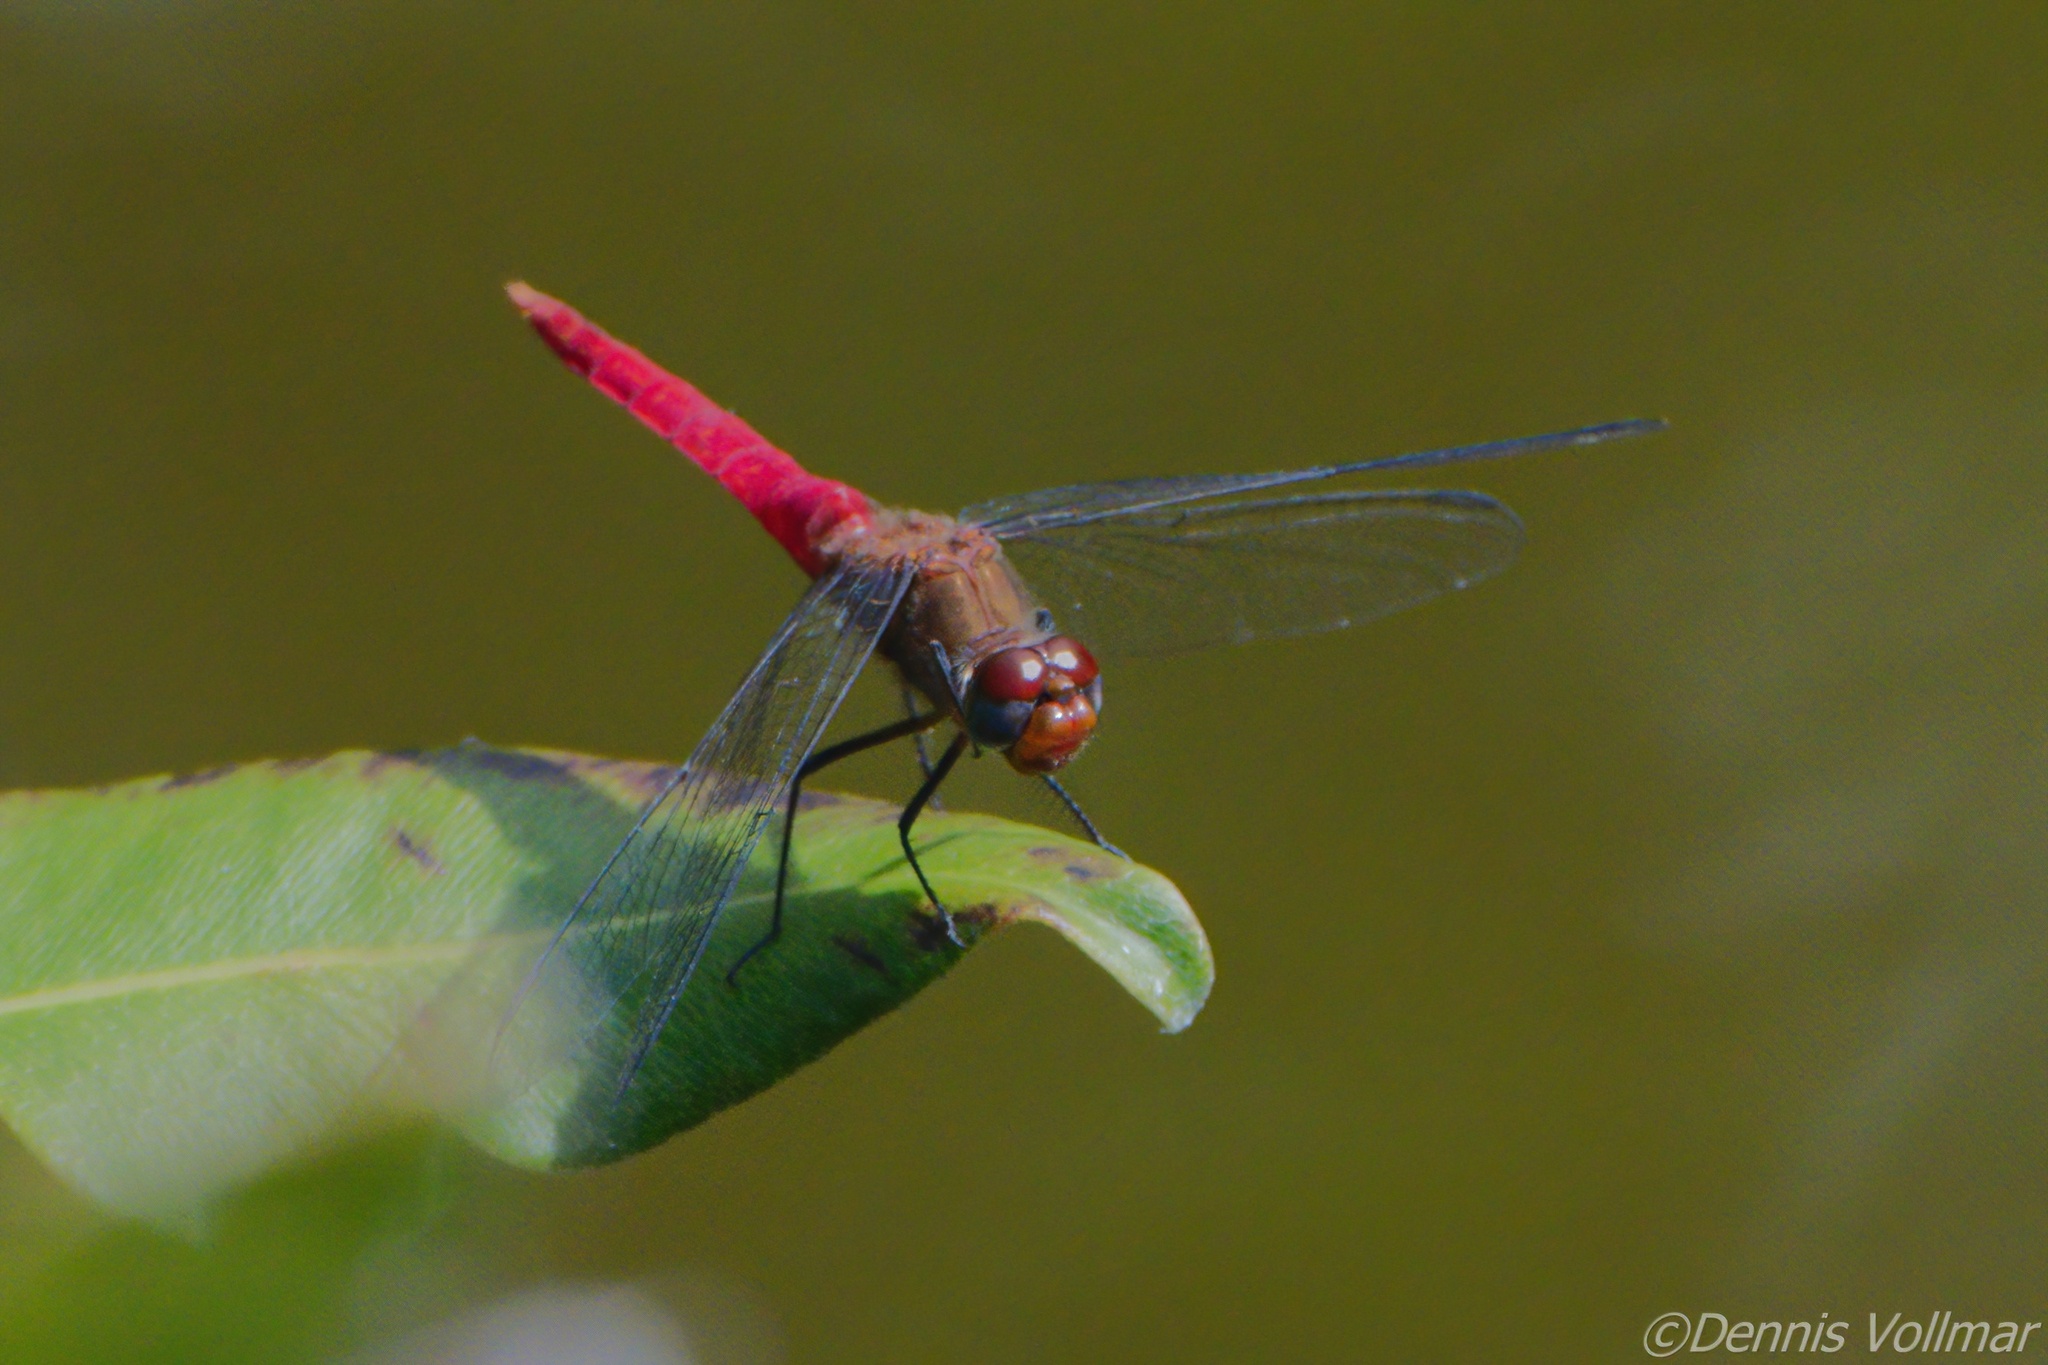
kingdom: Animalia
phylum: Arthropoda
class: Insecta
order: Odonata
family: Libellulidae
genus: Brachymesia
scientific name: Brachymesia furcata
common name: Red-taled pennant
